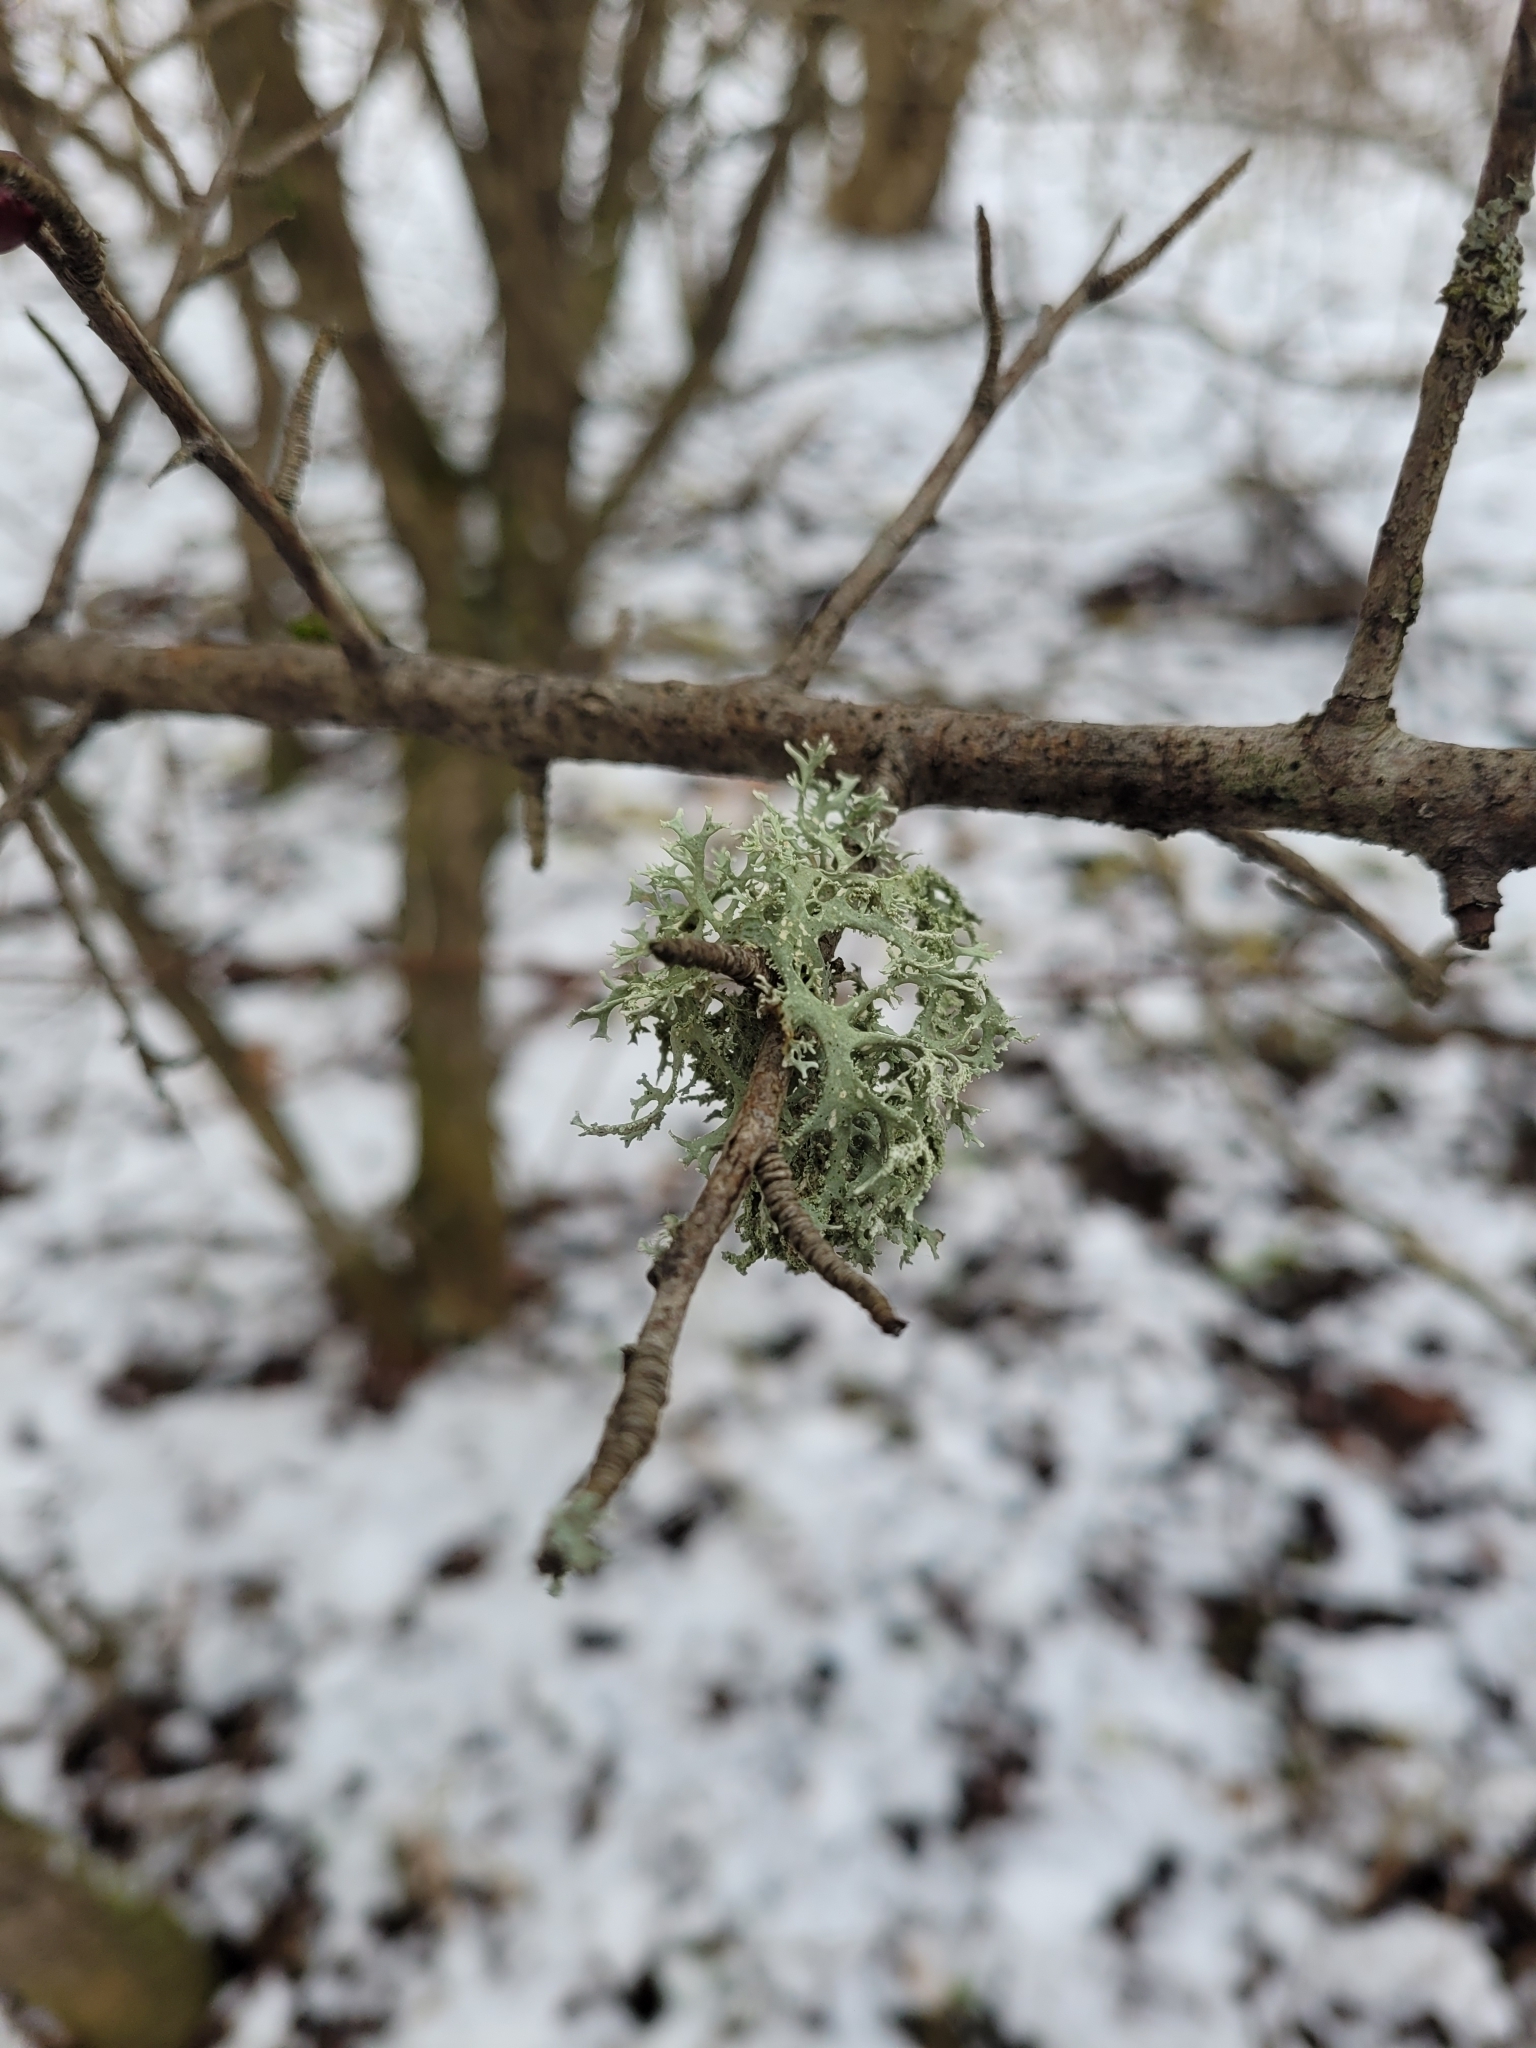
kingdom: Fungi
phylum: Ascomycota
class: Lecanoromycetes
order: Lecanorales
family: Parmeliaceae
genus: Evernia
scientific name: Evernia prunastri
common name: Oak moss
